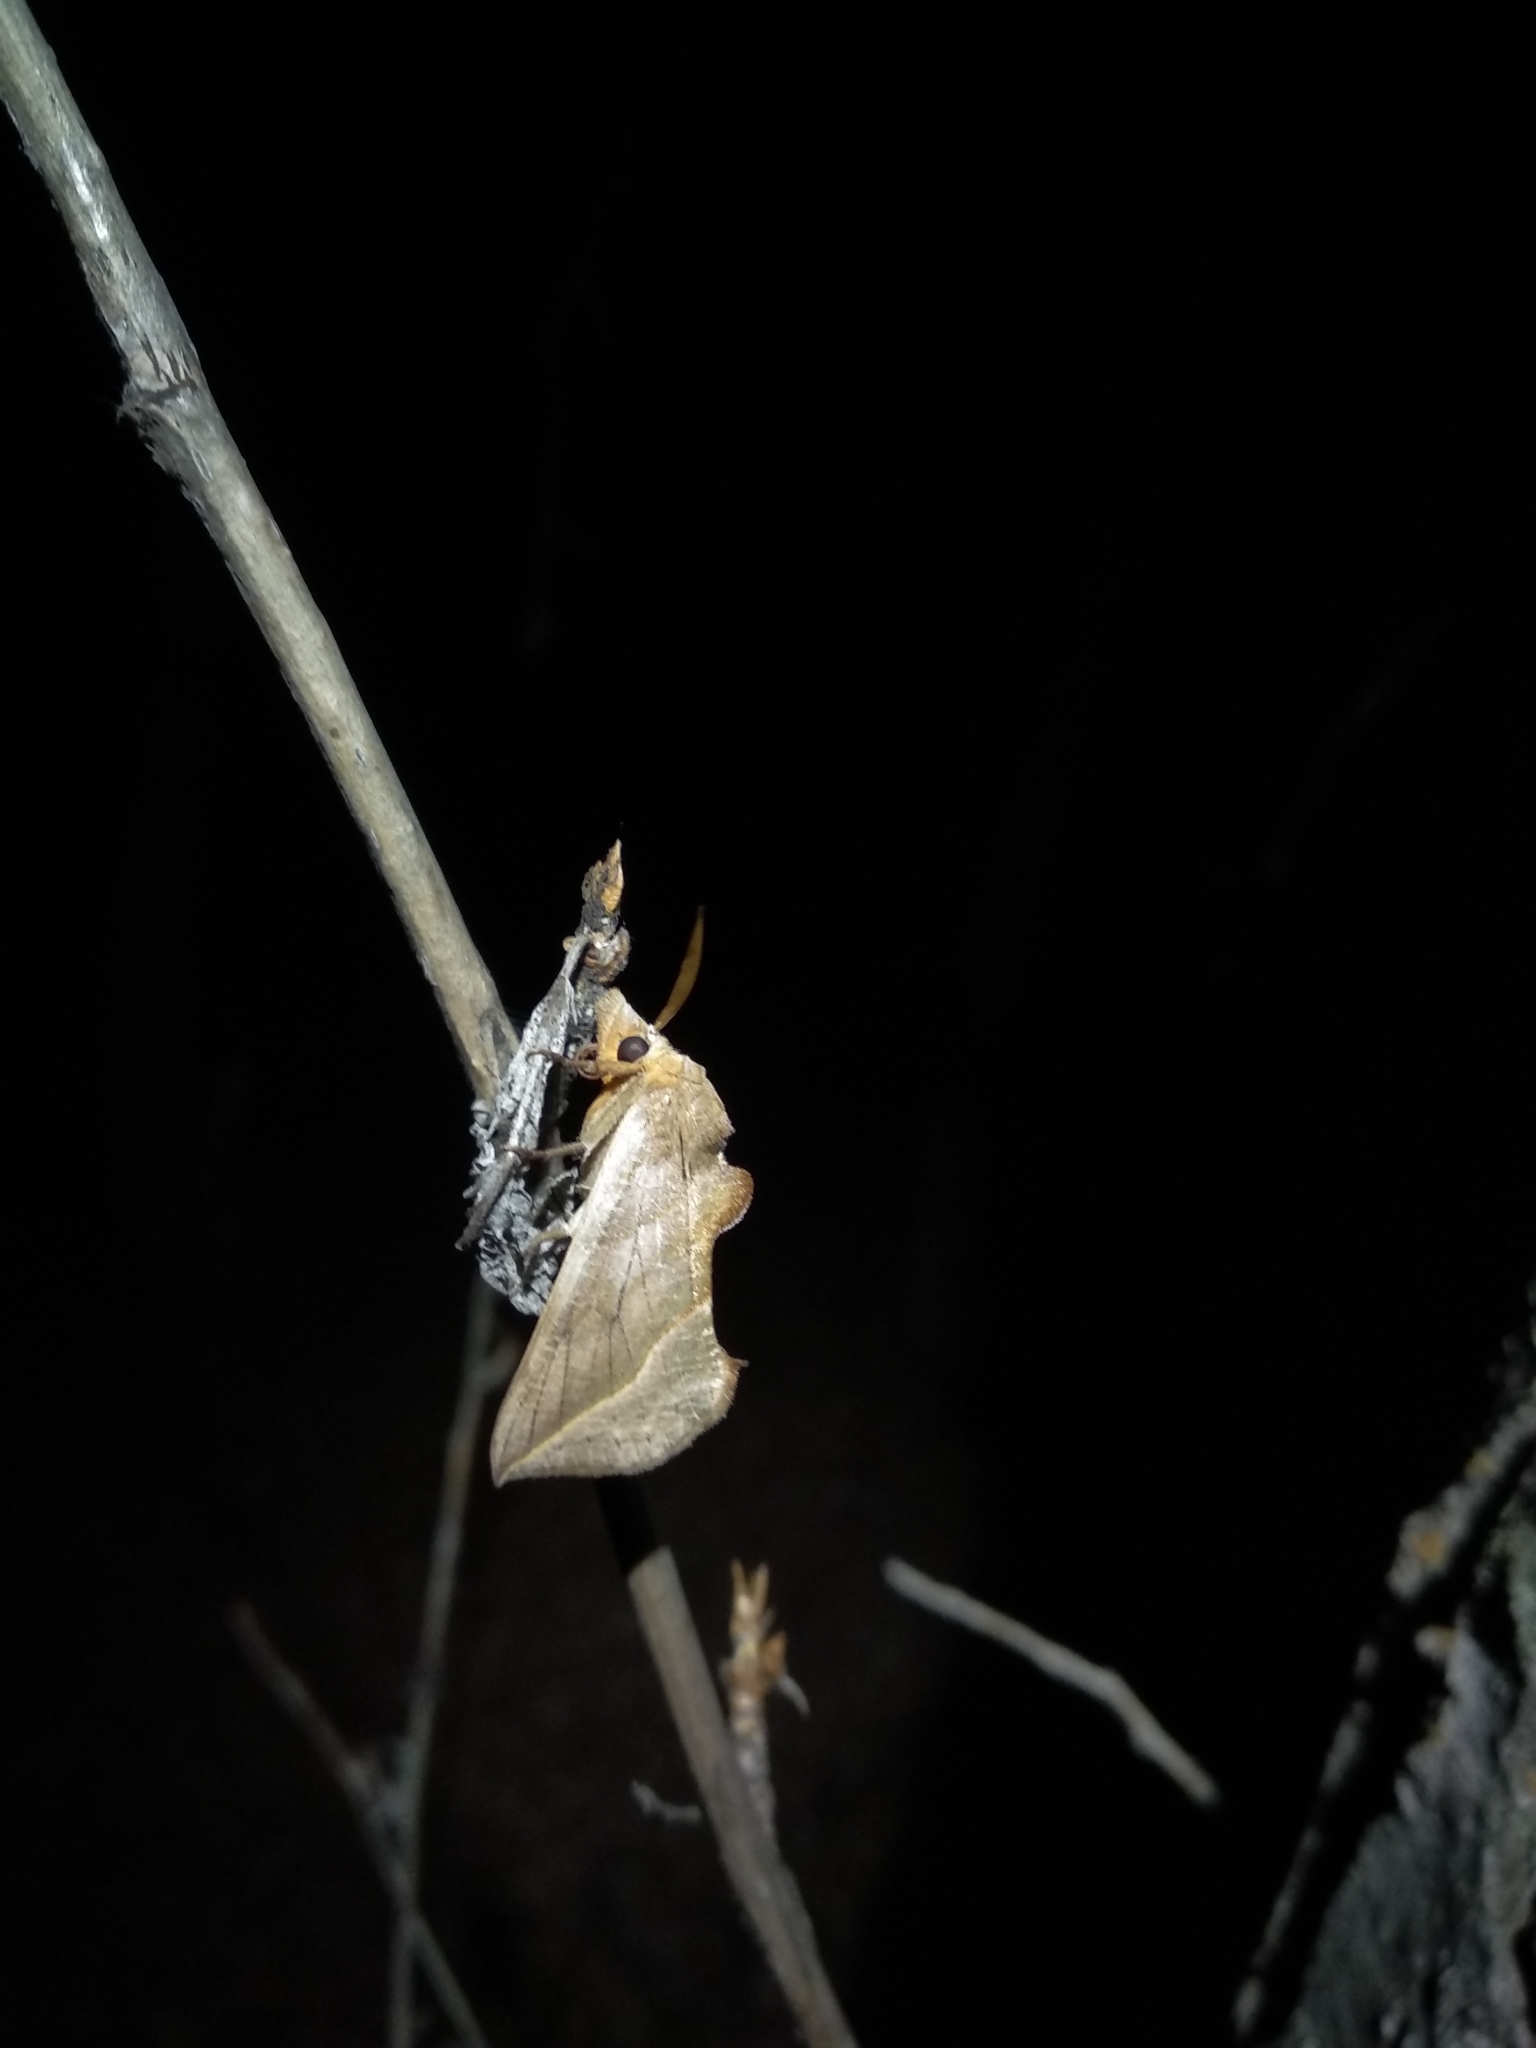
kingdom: Animalia
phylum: Arthropoda
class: Insecta
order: Lepidoptera
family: Erebidae
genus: Calyptra
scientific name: Calyptra thalictri
